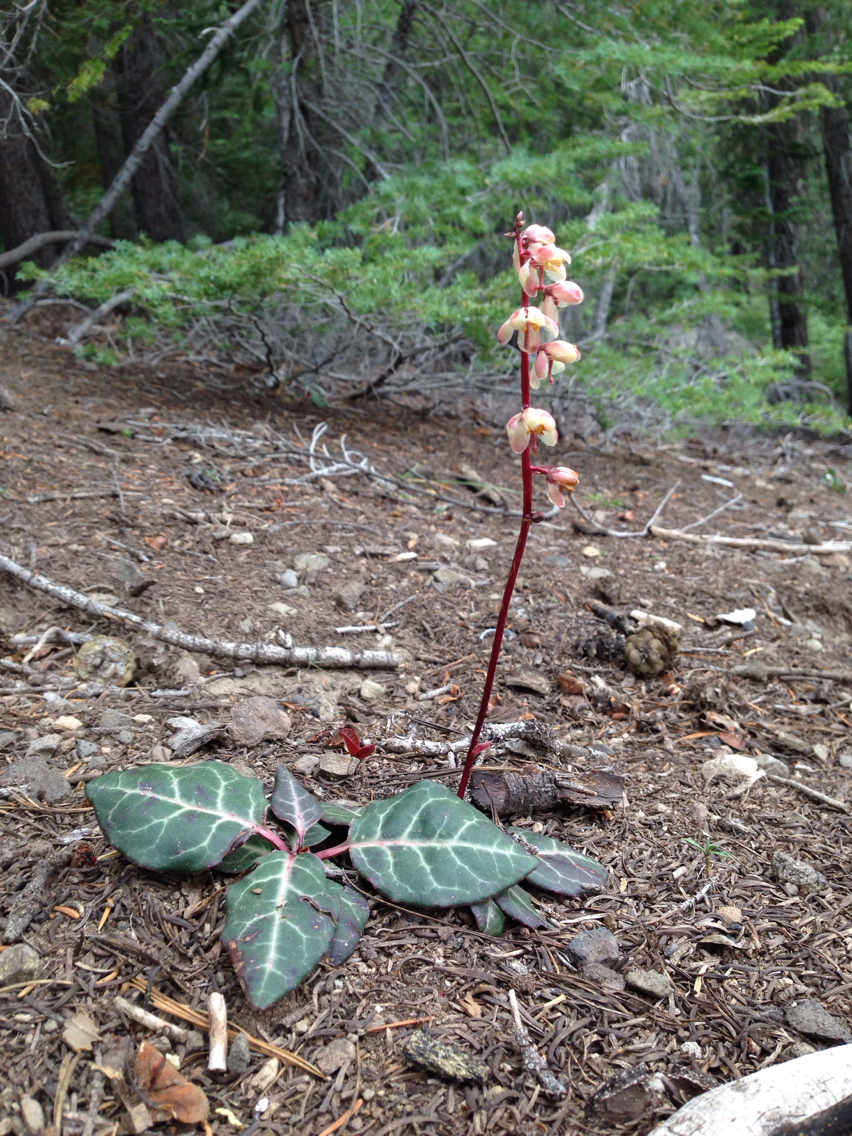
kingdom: Plantae
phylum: Tracheophyta
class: Magnoliopsida
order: Ericales
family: Ericaceae
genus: Pyrola
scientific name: Pyrola picta
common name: White-vein wintergreen
